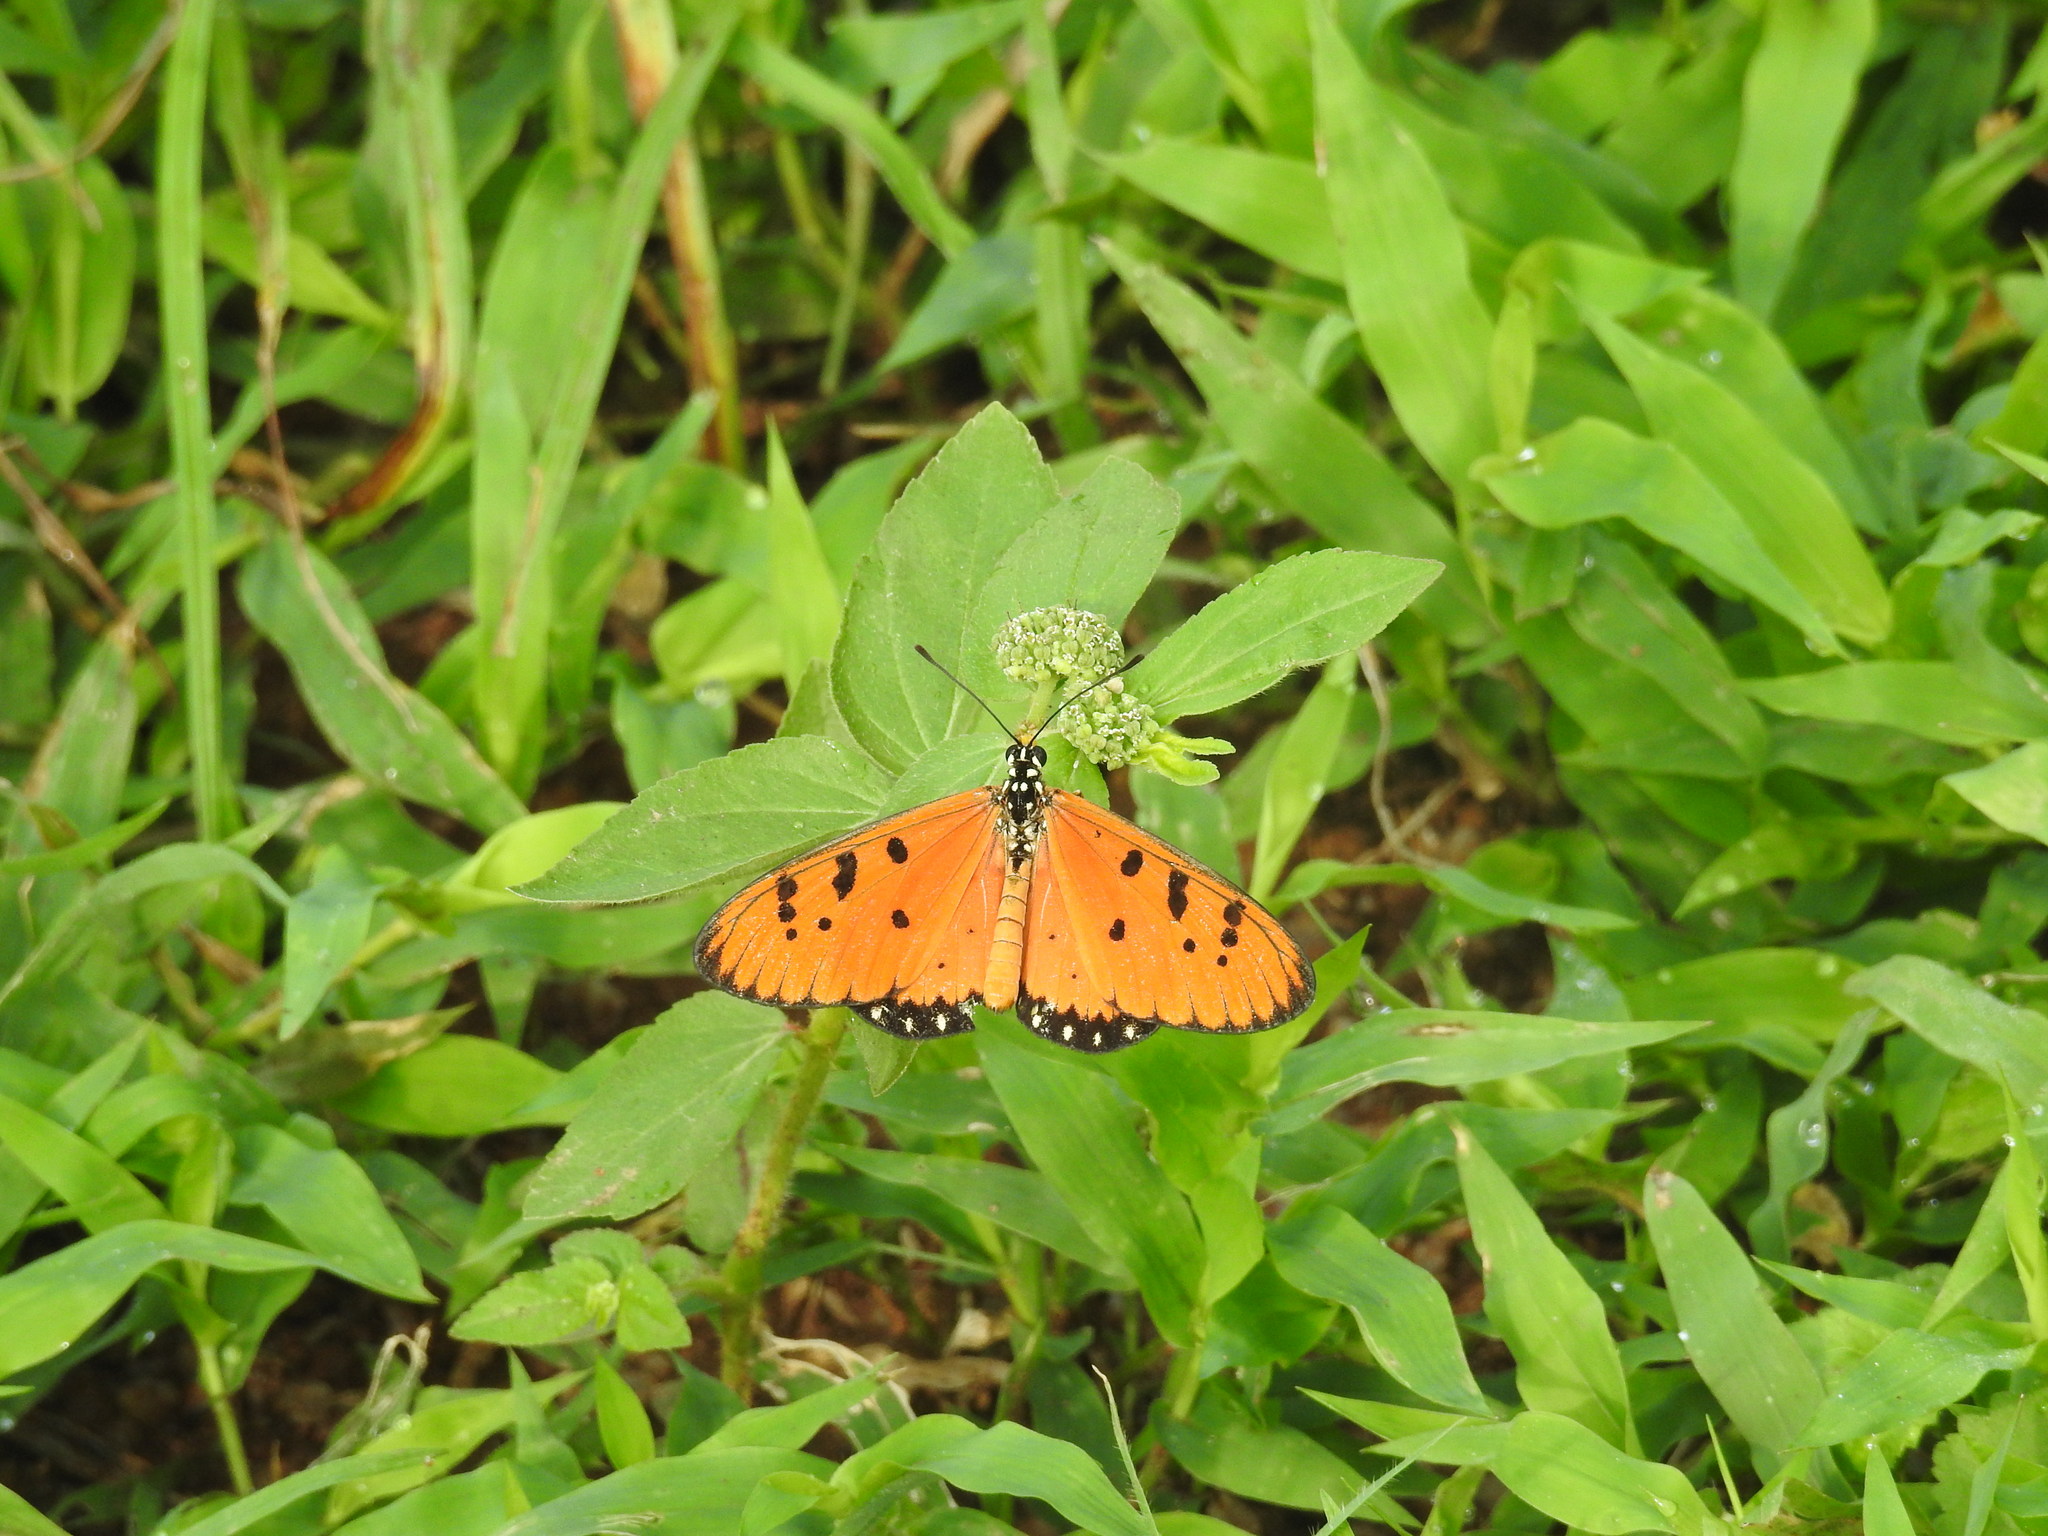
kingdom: Animalia
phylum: Arthropoda
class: Insecta
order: Lepidoptera
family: Nymphalidae
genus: Acraea
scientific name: Acraea terpsicore
